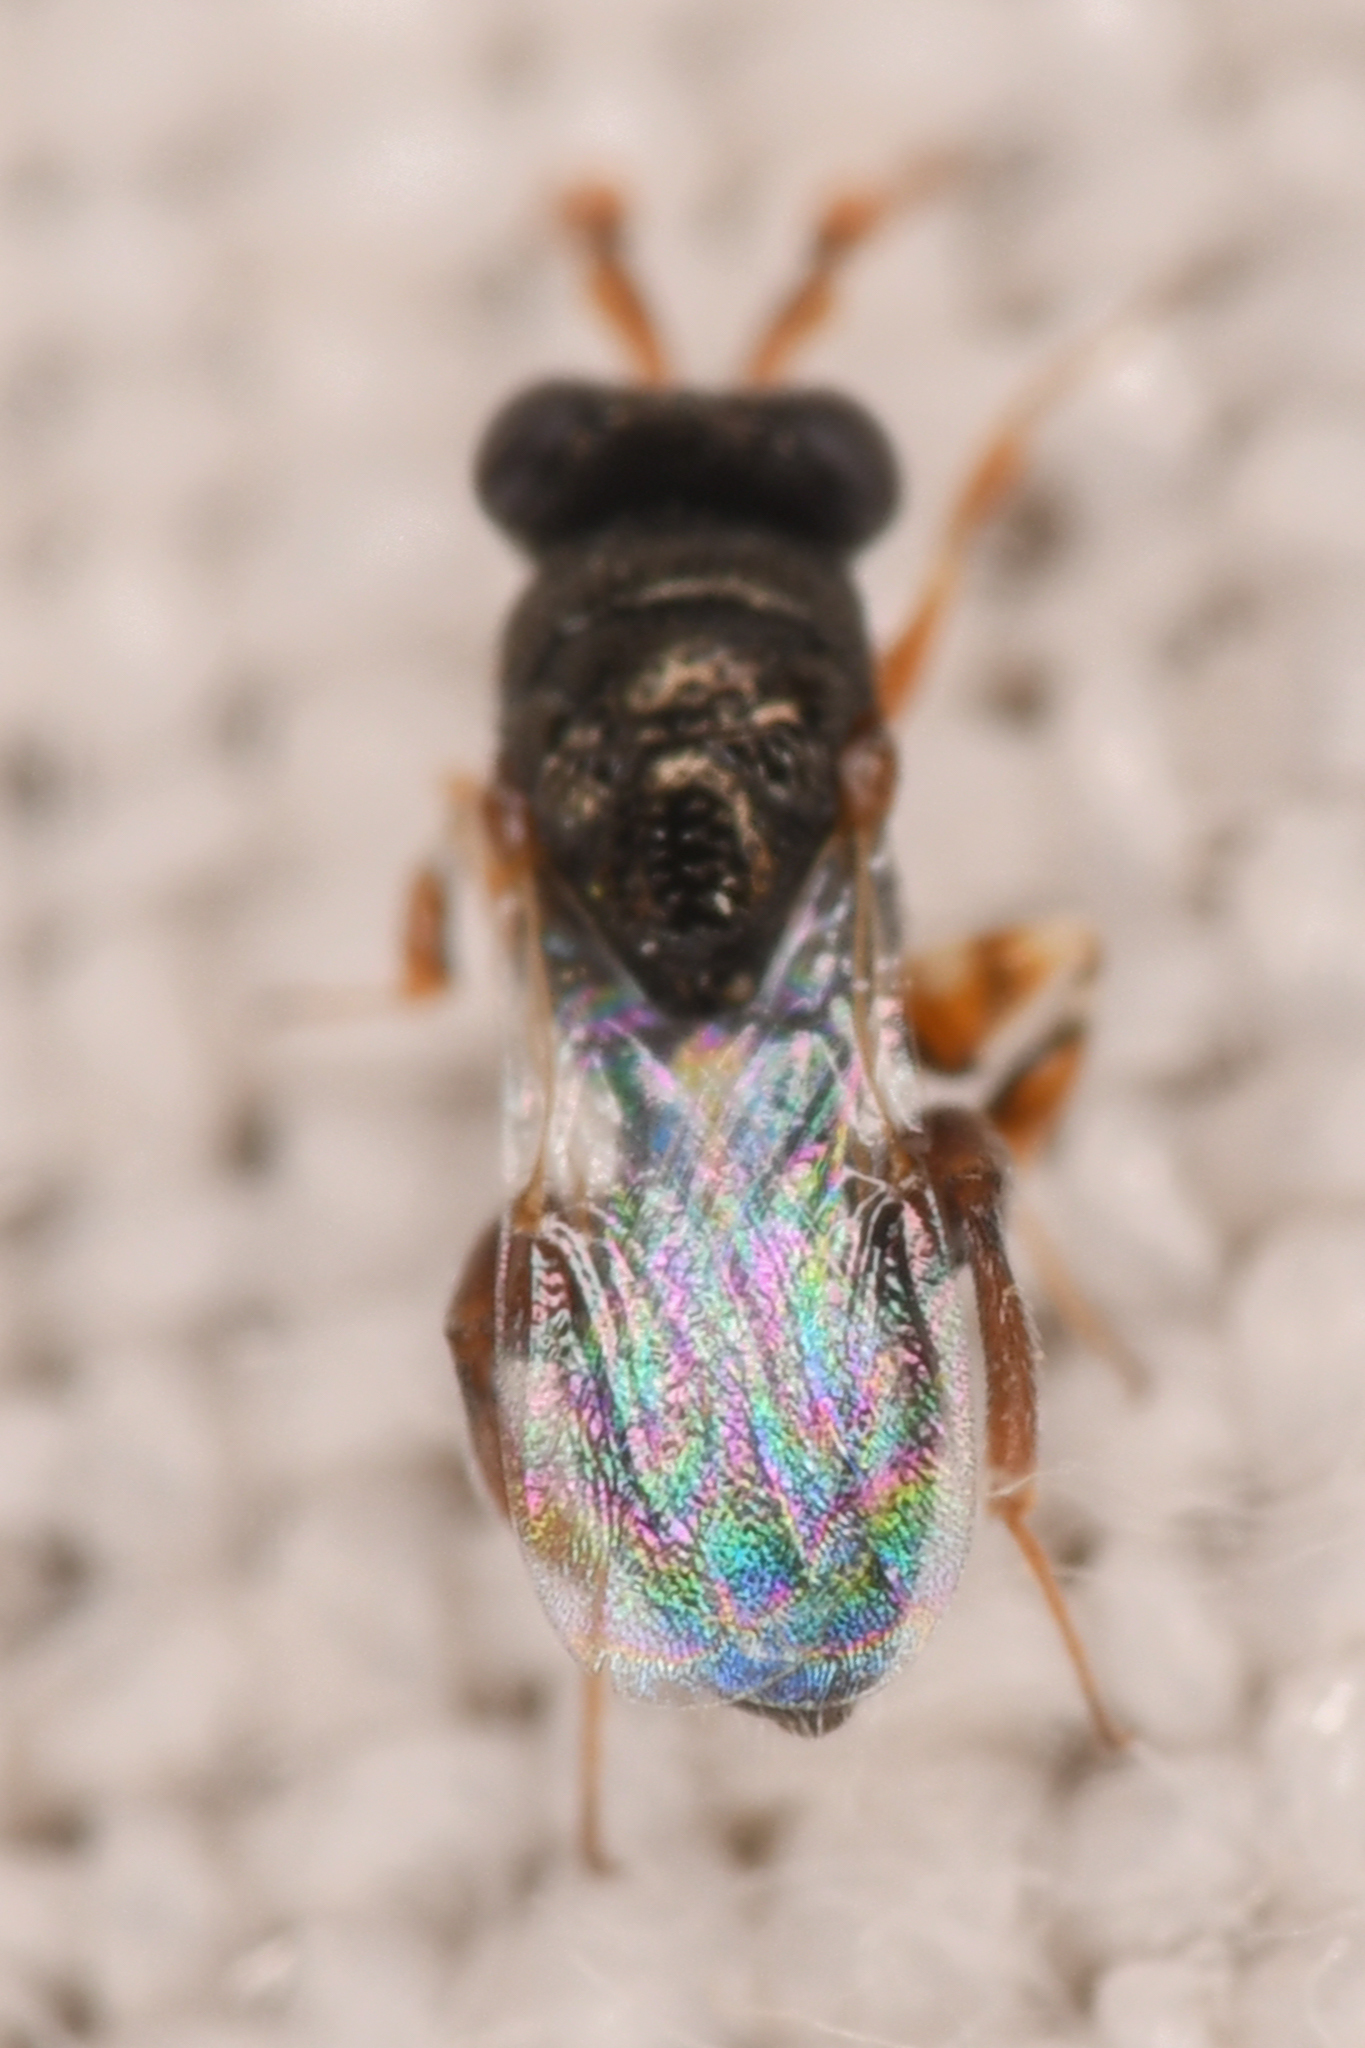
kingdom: Animalia
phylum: Arthropoda
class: Insecta
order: Hymenoptera
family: Chalcididae
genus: Schwarzella
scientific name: Schwarzella arizonensis
